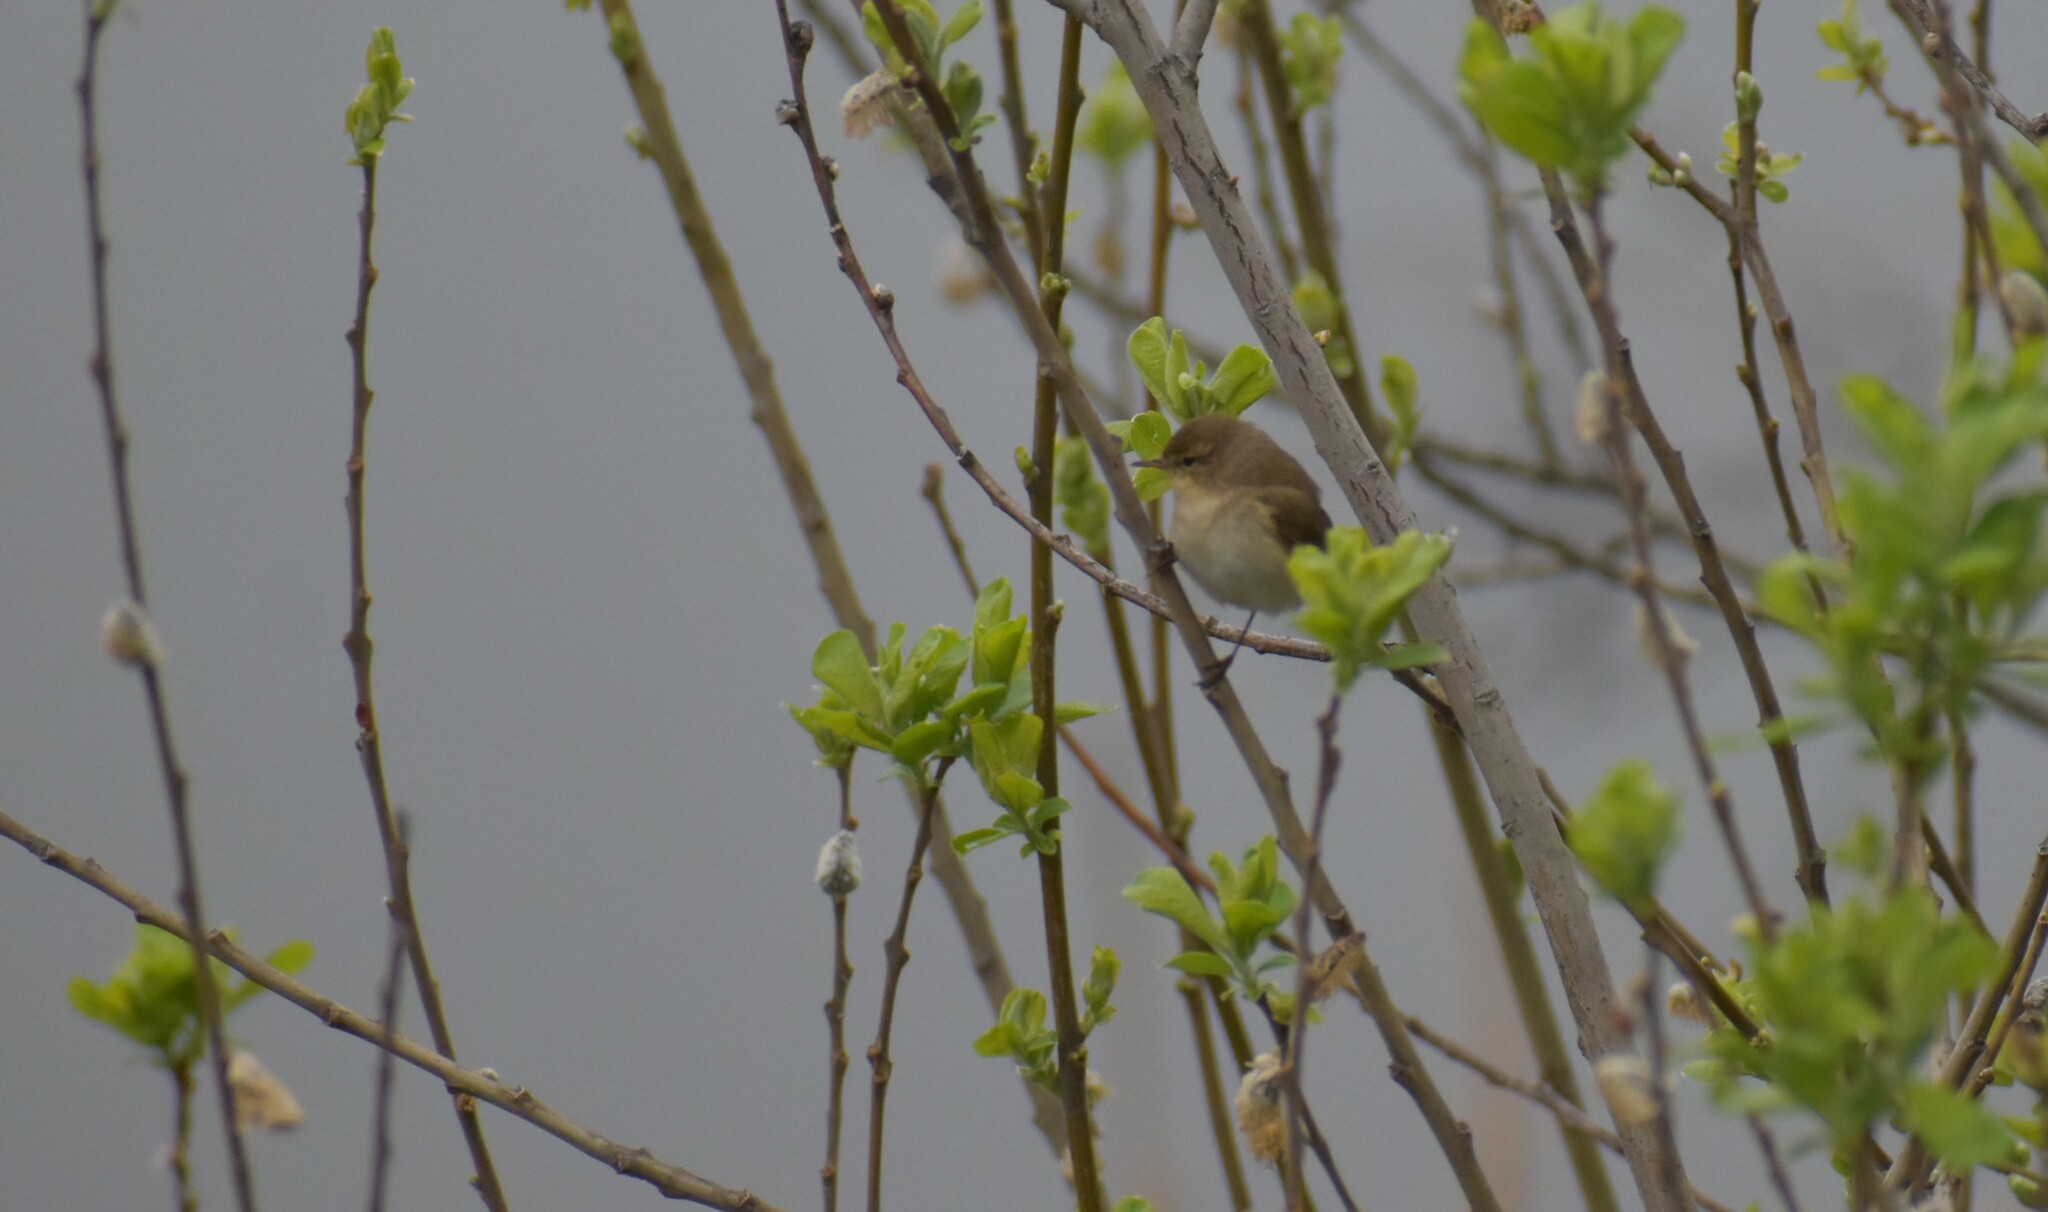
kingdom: Animalia
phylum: Chordata
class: Aves
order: Passeriformes
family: Phylloscopidae
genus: Phylloscopus
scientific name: Phylloscopus collybita
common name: Common chiffchaff
